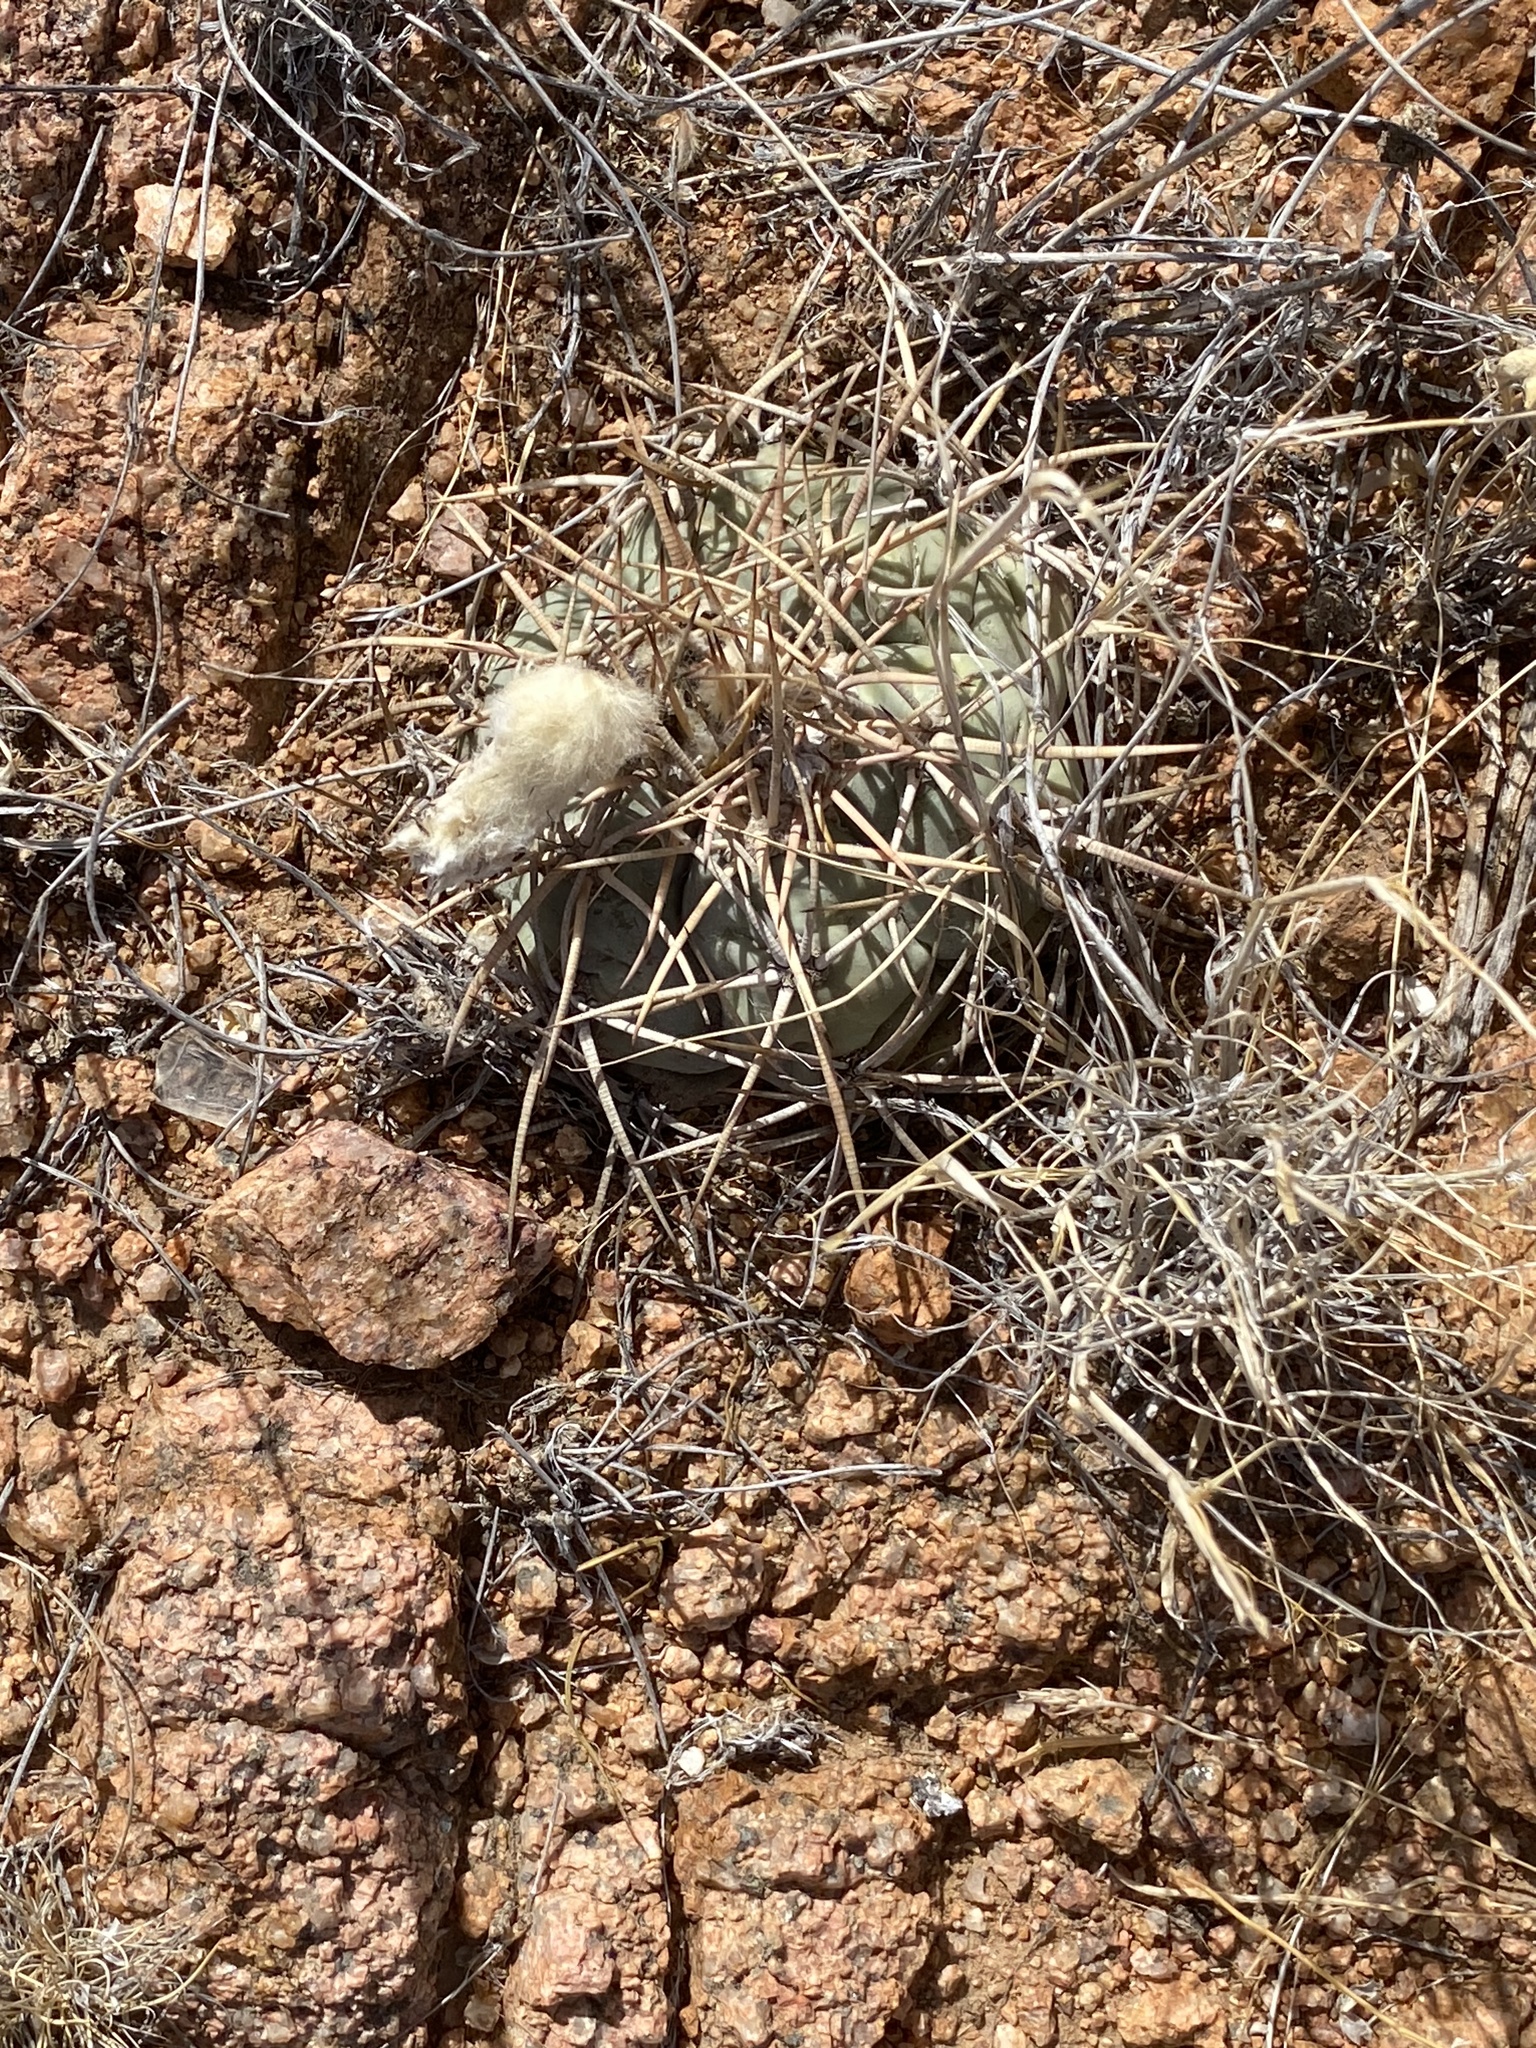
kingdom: Plantae
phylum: Tracheophyta
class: Magnoliopsida
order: Caryophyllales
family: Cactaceae
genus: Echinocactus
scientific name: Echinocactus horizonthalonius
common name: Devilshead
